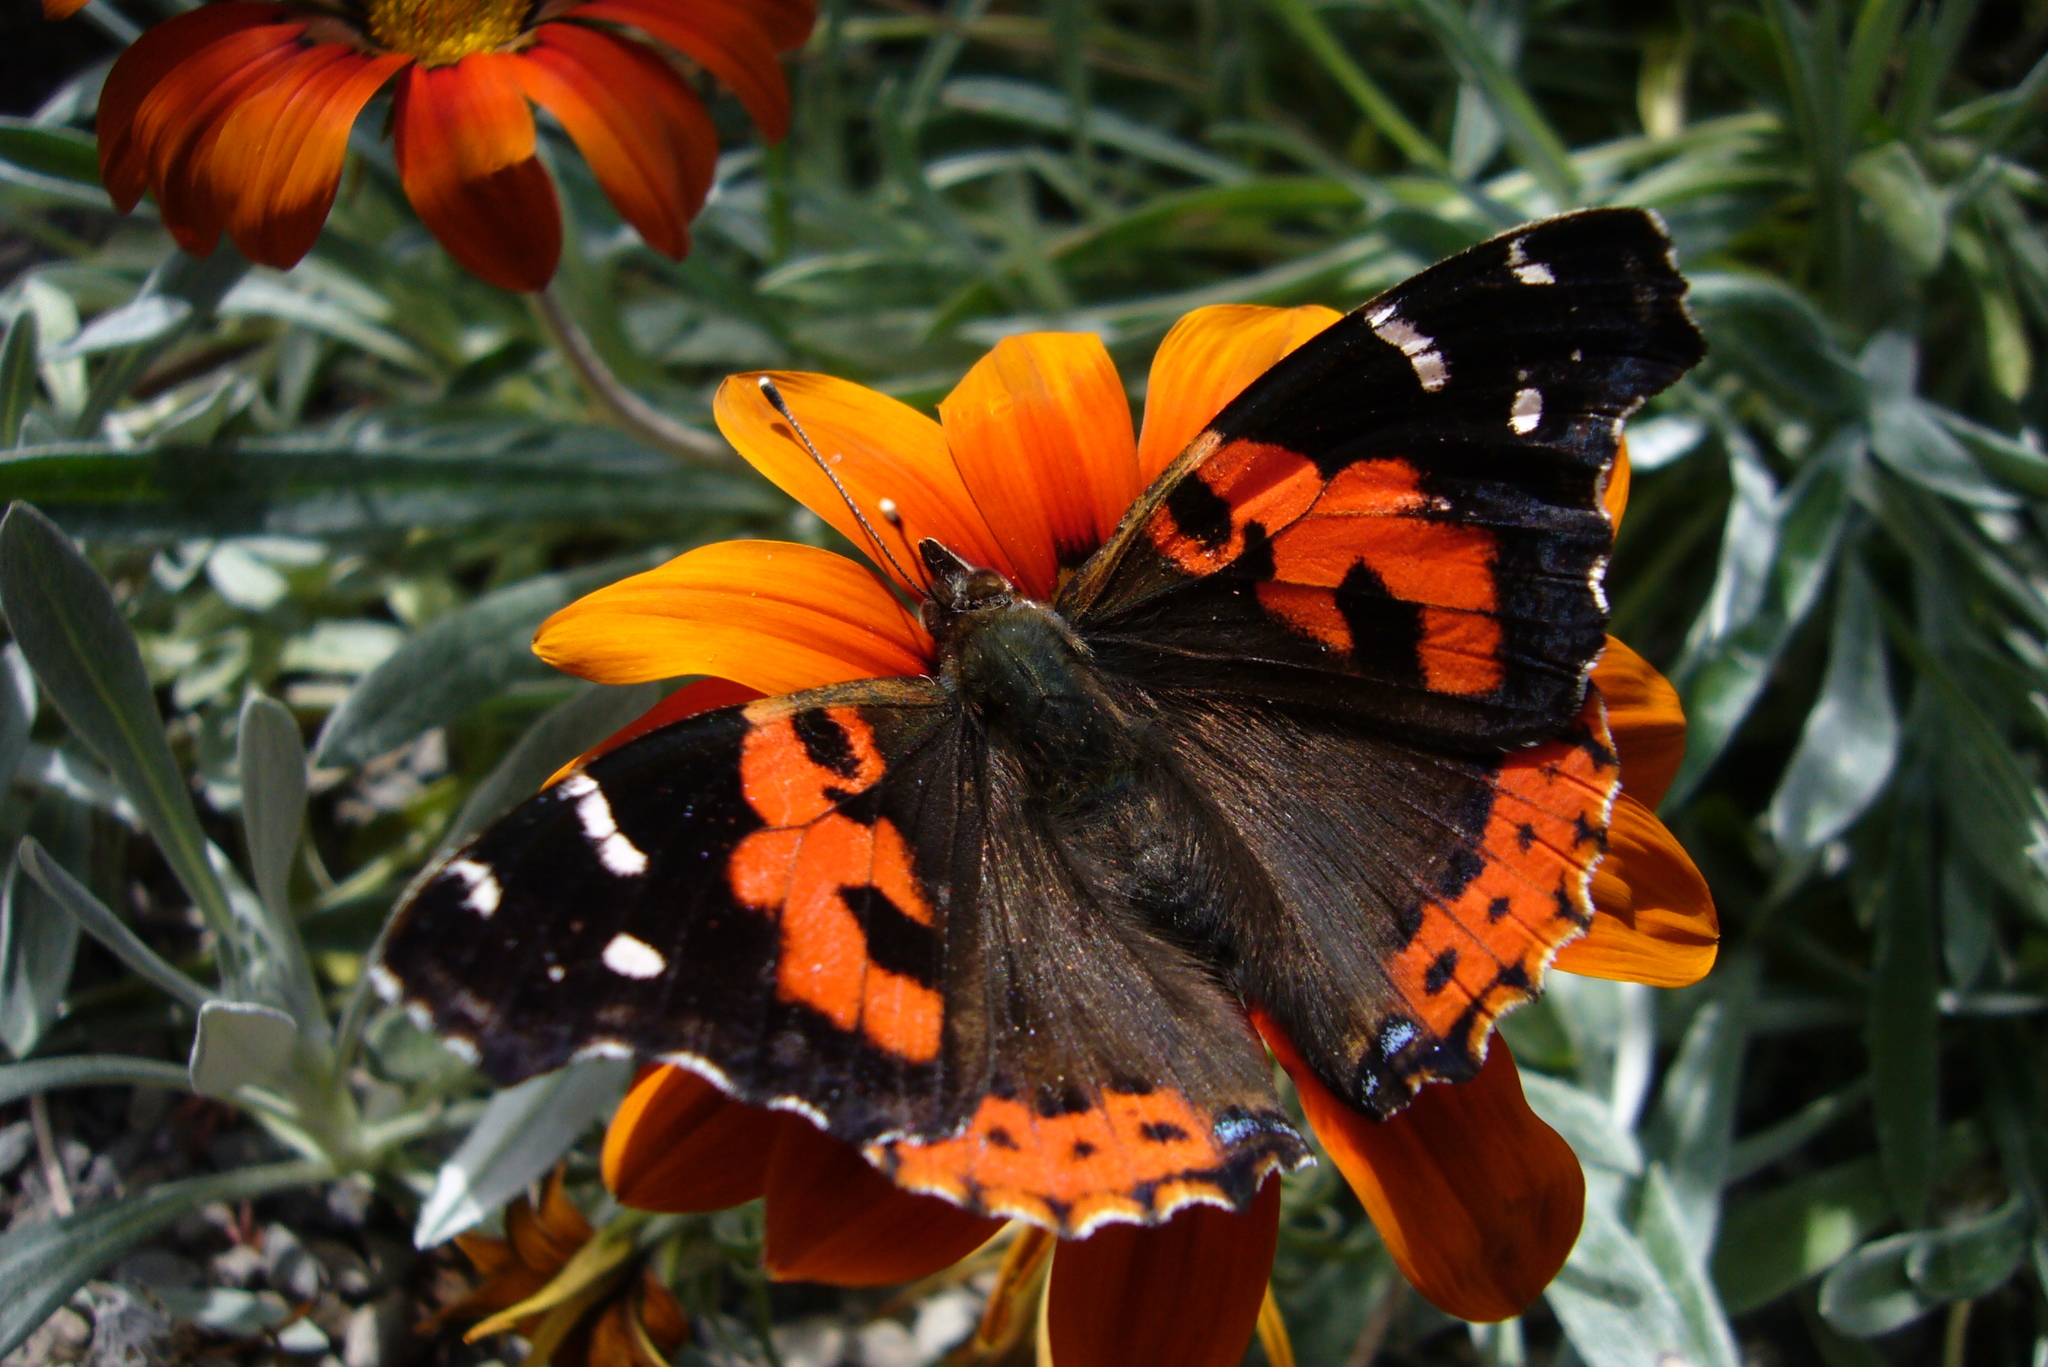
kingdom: Animalia
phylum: Arthropoda
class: Insecta
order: Lepidoptera
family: Nymphalidae
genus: Vanessa
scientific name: Vanessa vulcania
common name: Canary red admiral
